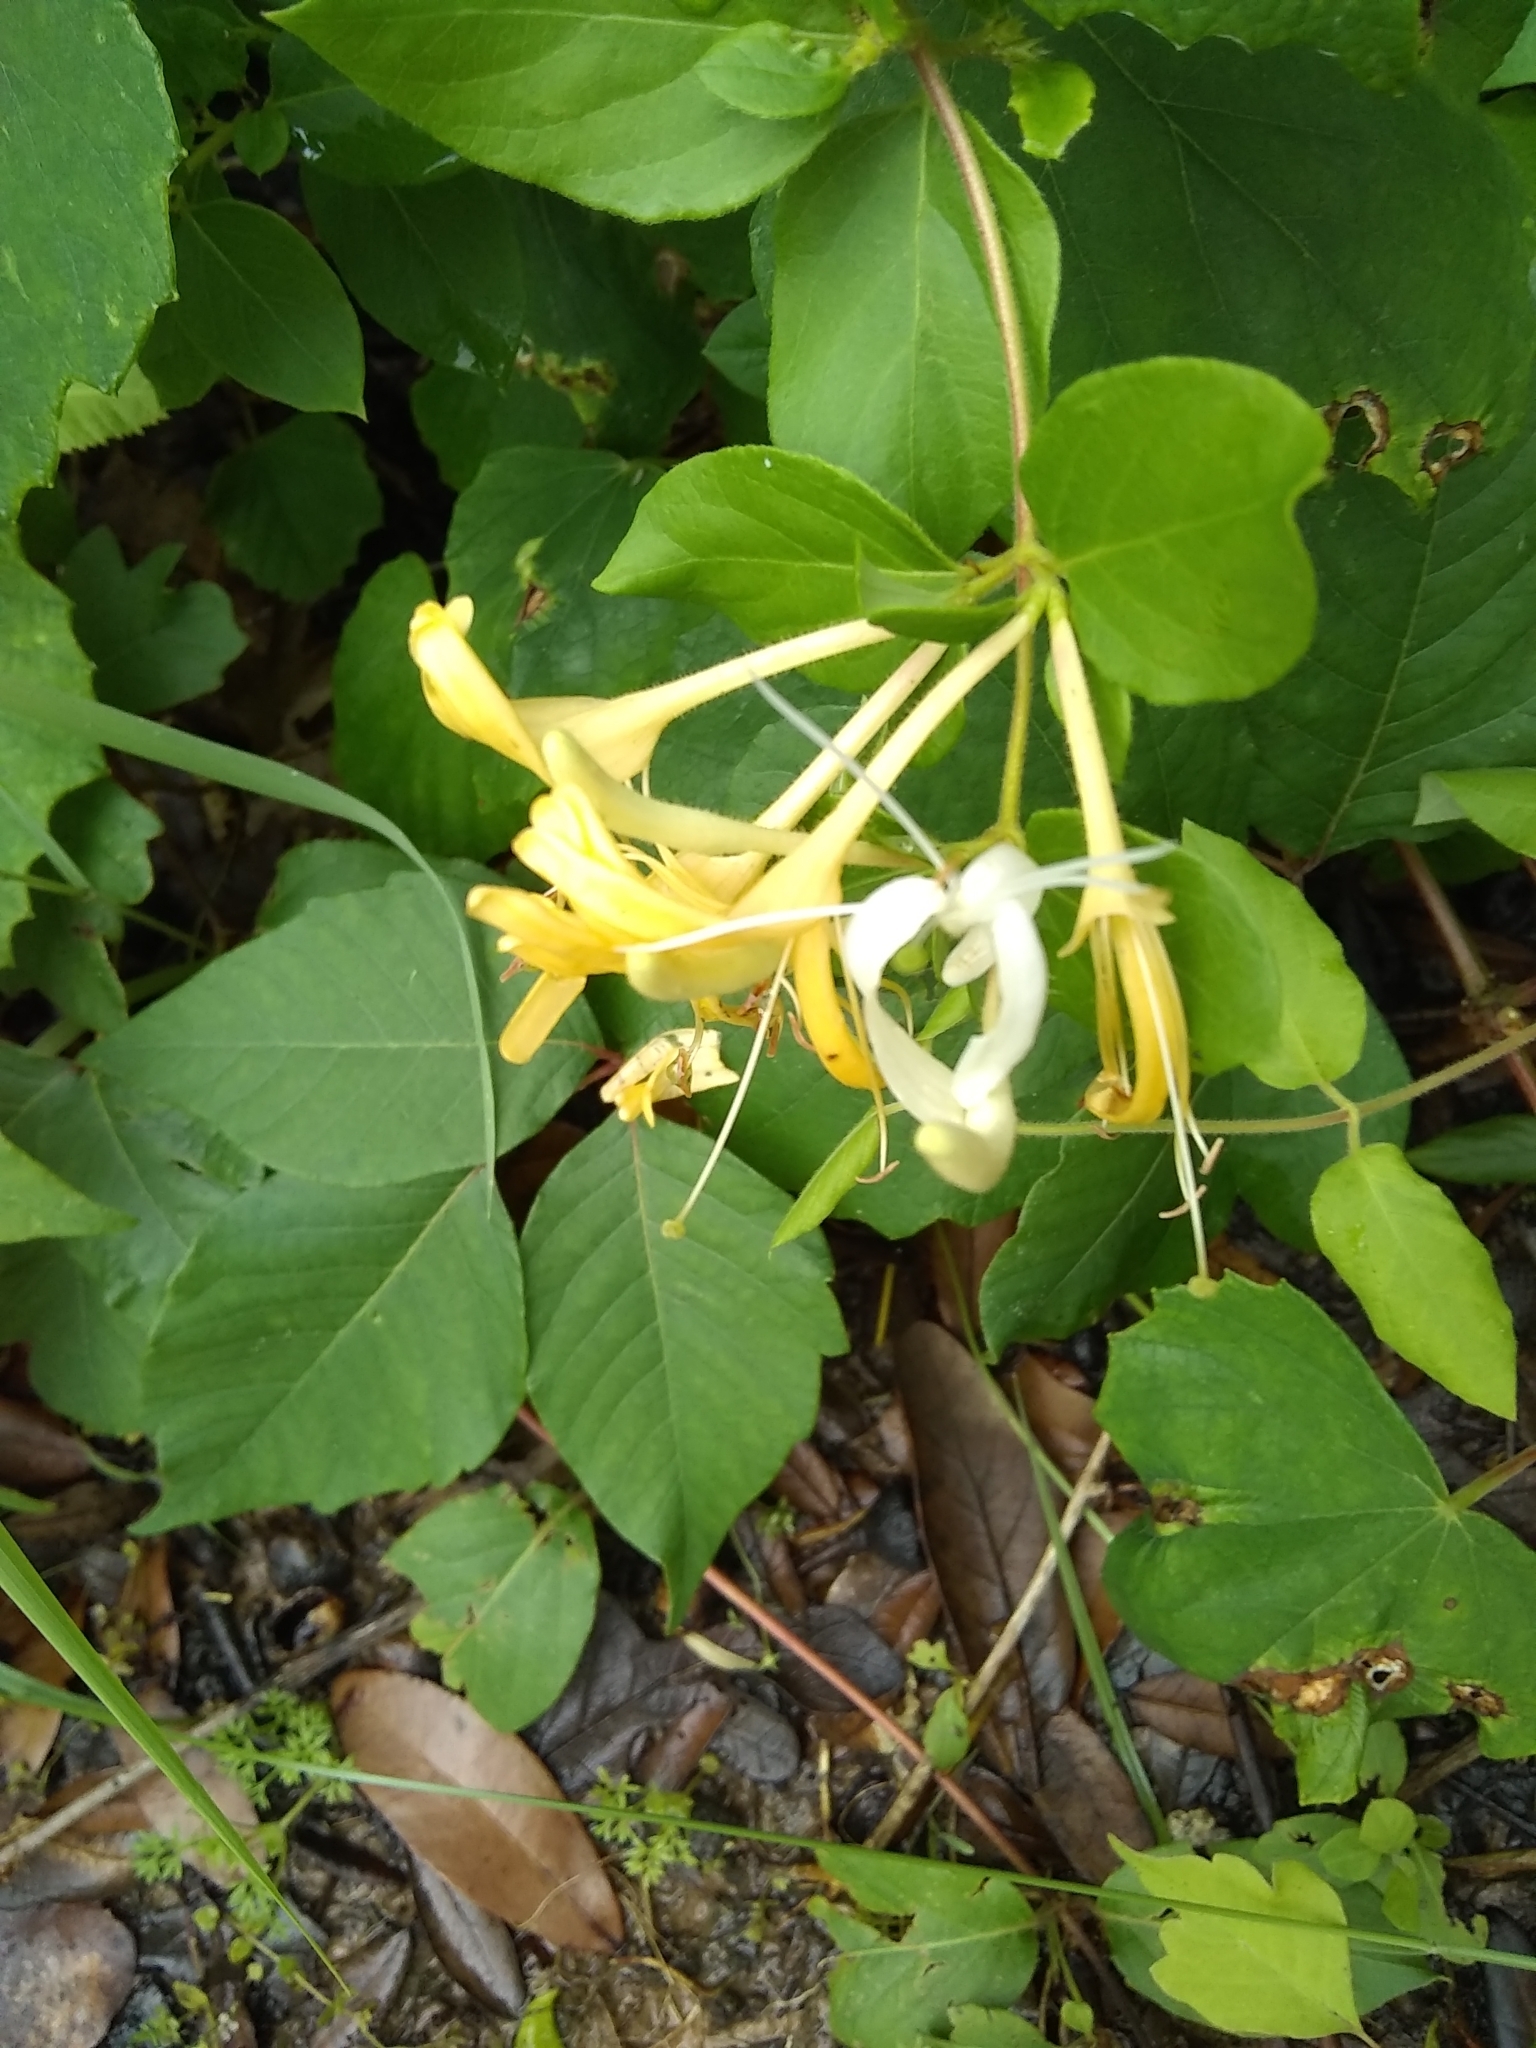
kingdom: Plantae
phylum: Tracheophyta
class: Magnoliopsida
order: Dipsacales
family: Caprifoliaceae
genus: Lonicera
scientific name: Lonicera japonica
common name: Japanese honeysuckle
